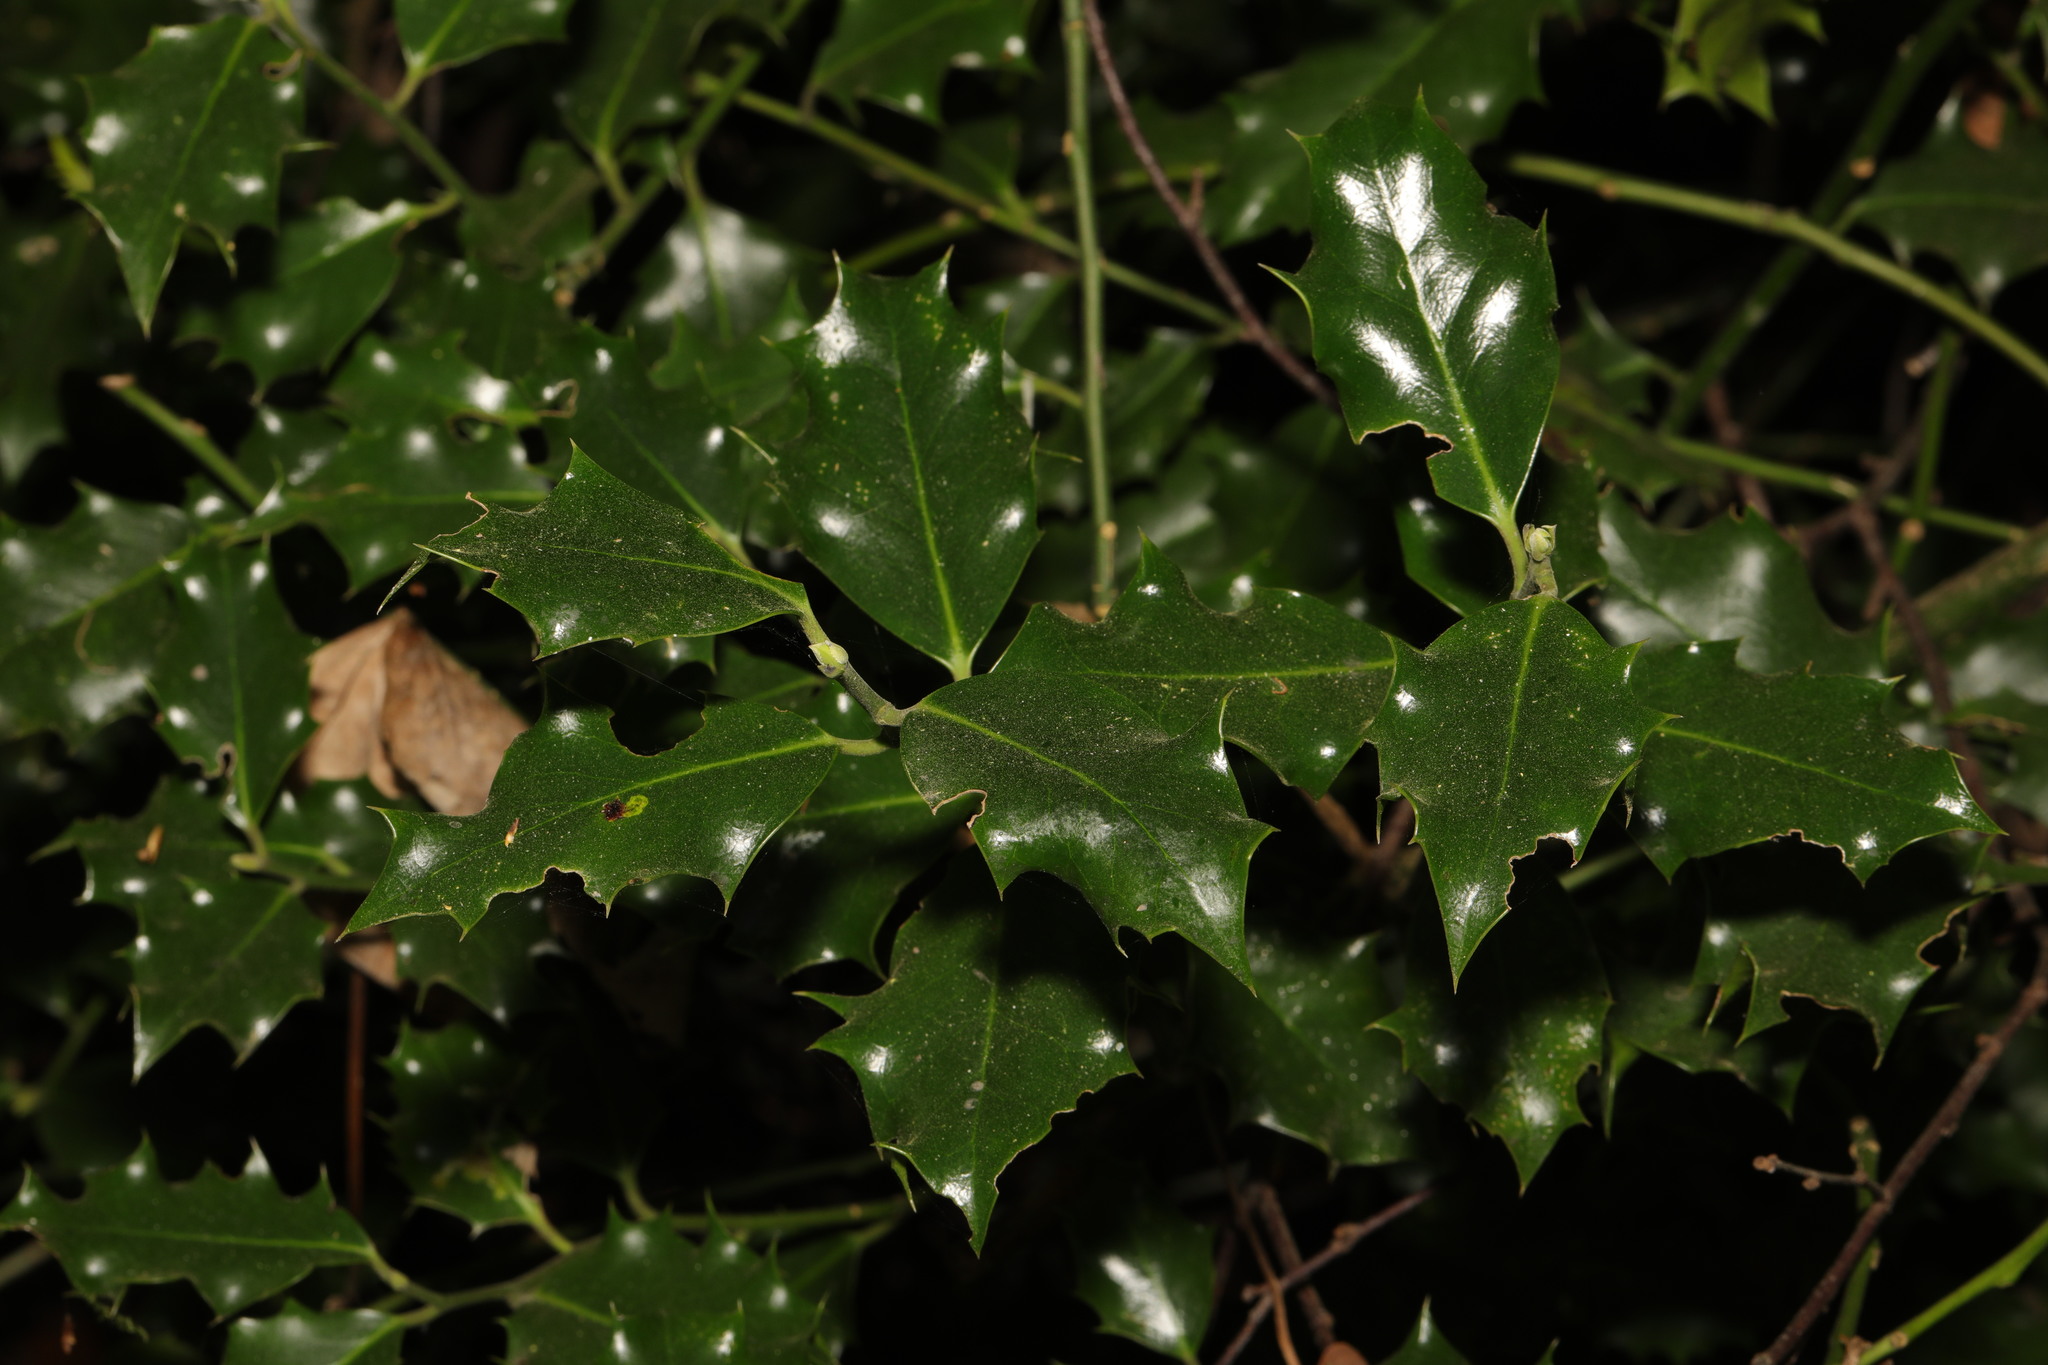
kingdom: Plantae
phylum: Tracheophyta
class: Magnoliopsida
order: Aquifoliales
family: Aquifoliaceae
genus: Ilex
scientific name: Ilex aquifolium
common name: English holly
